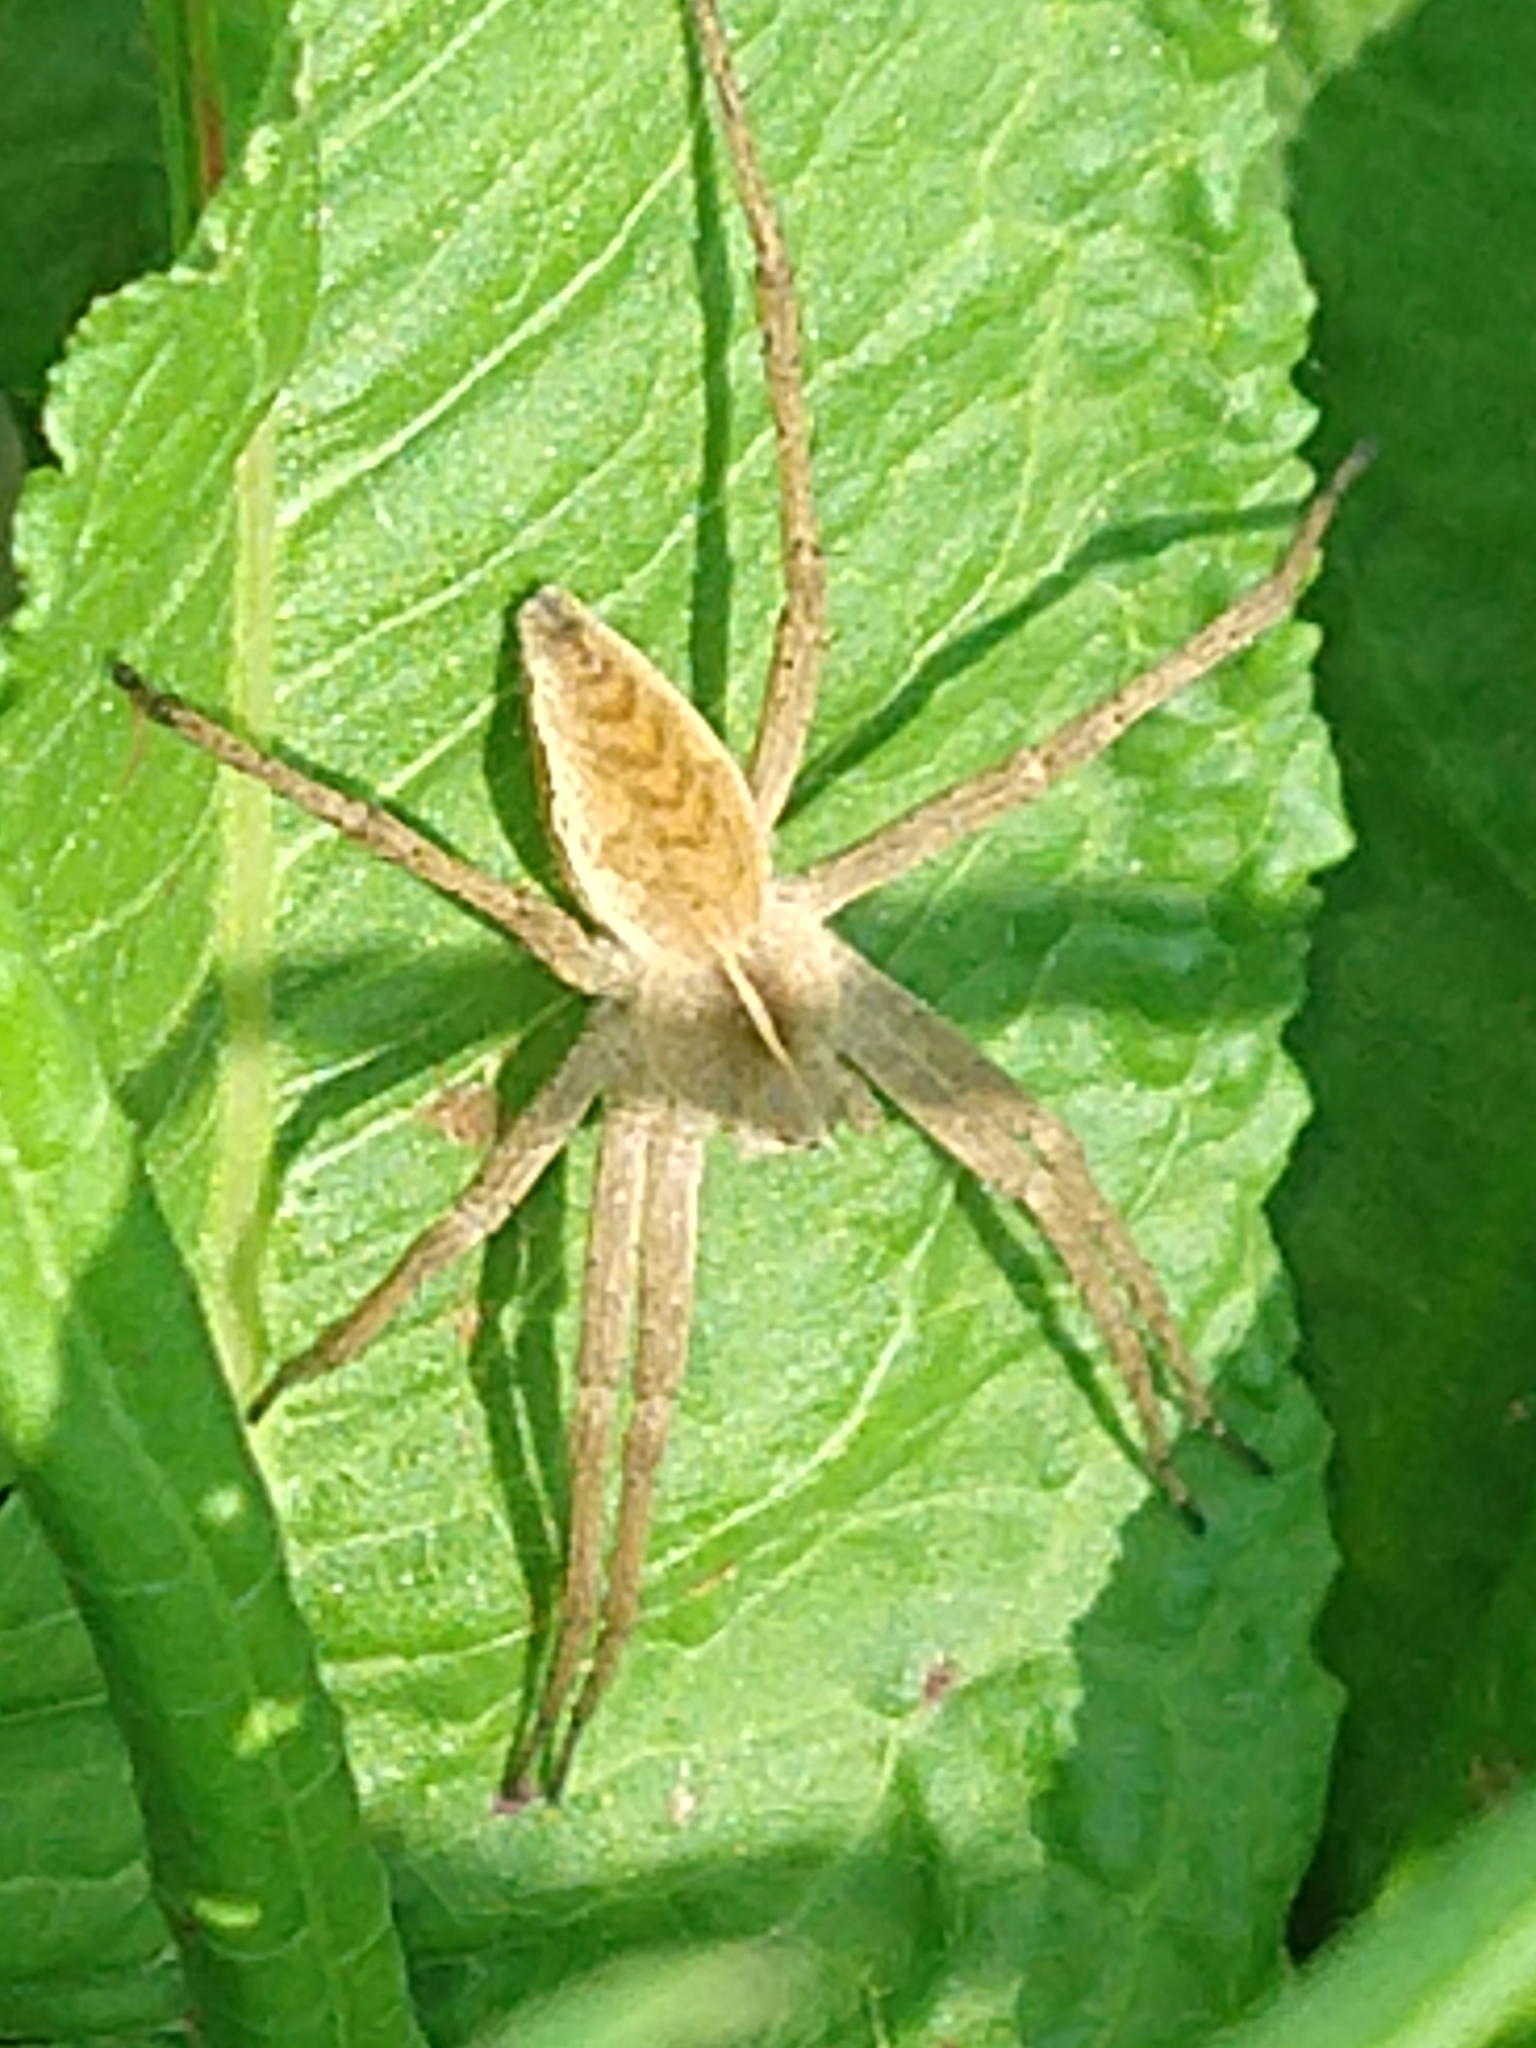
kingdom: Animalia
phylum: Arthropoda
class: Arachnida
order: Araneae
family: Pisauridae
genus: Pisaura
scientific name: Pisaura mirabilis
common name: Tent spider
